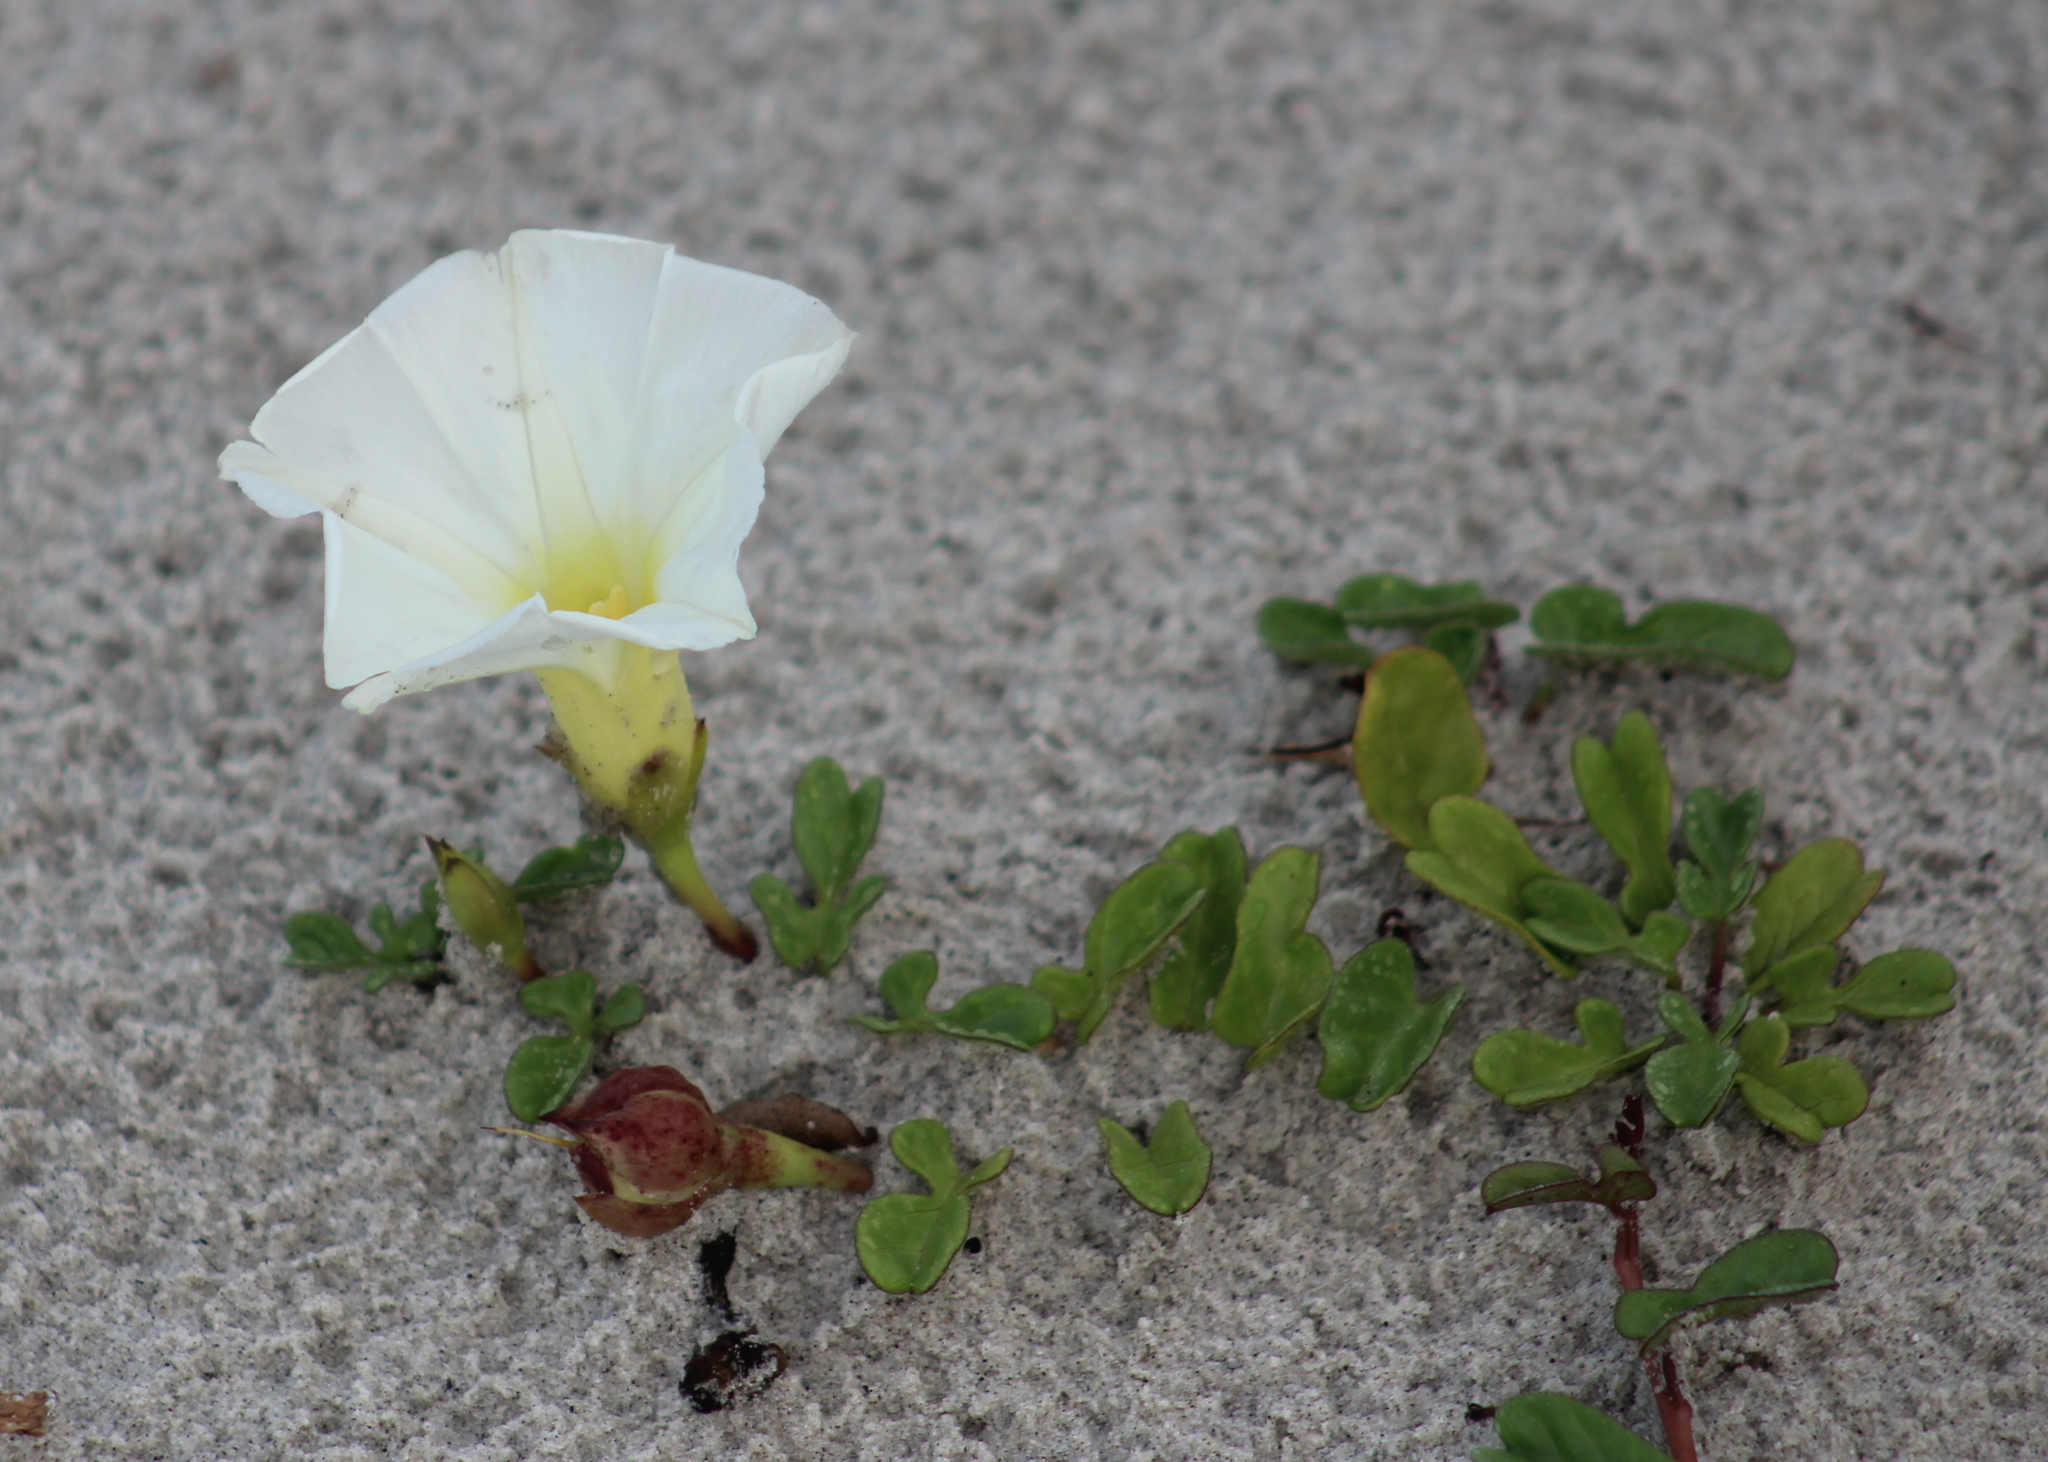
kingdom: Plantae
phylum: Tracheophyta
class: Magnoliopsida
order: Solanales
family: Convolvulaceae
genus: Ipomoea
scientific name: Ipomoea imperati
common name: Fiddle-leaf morning-glory
